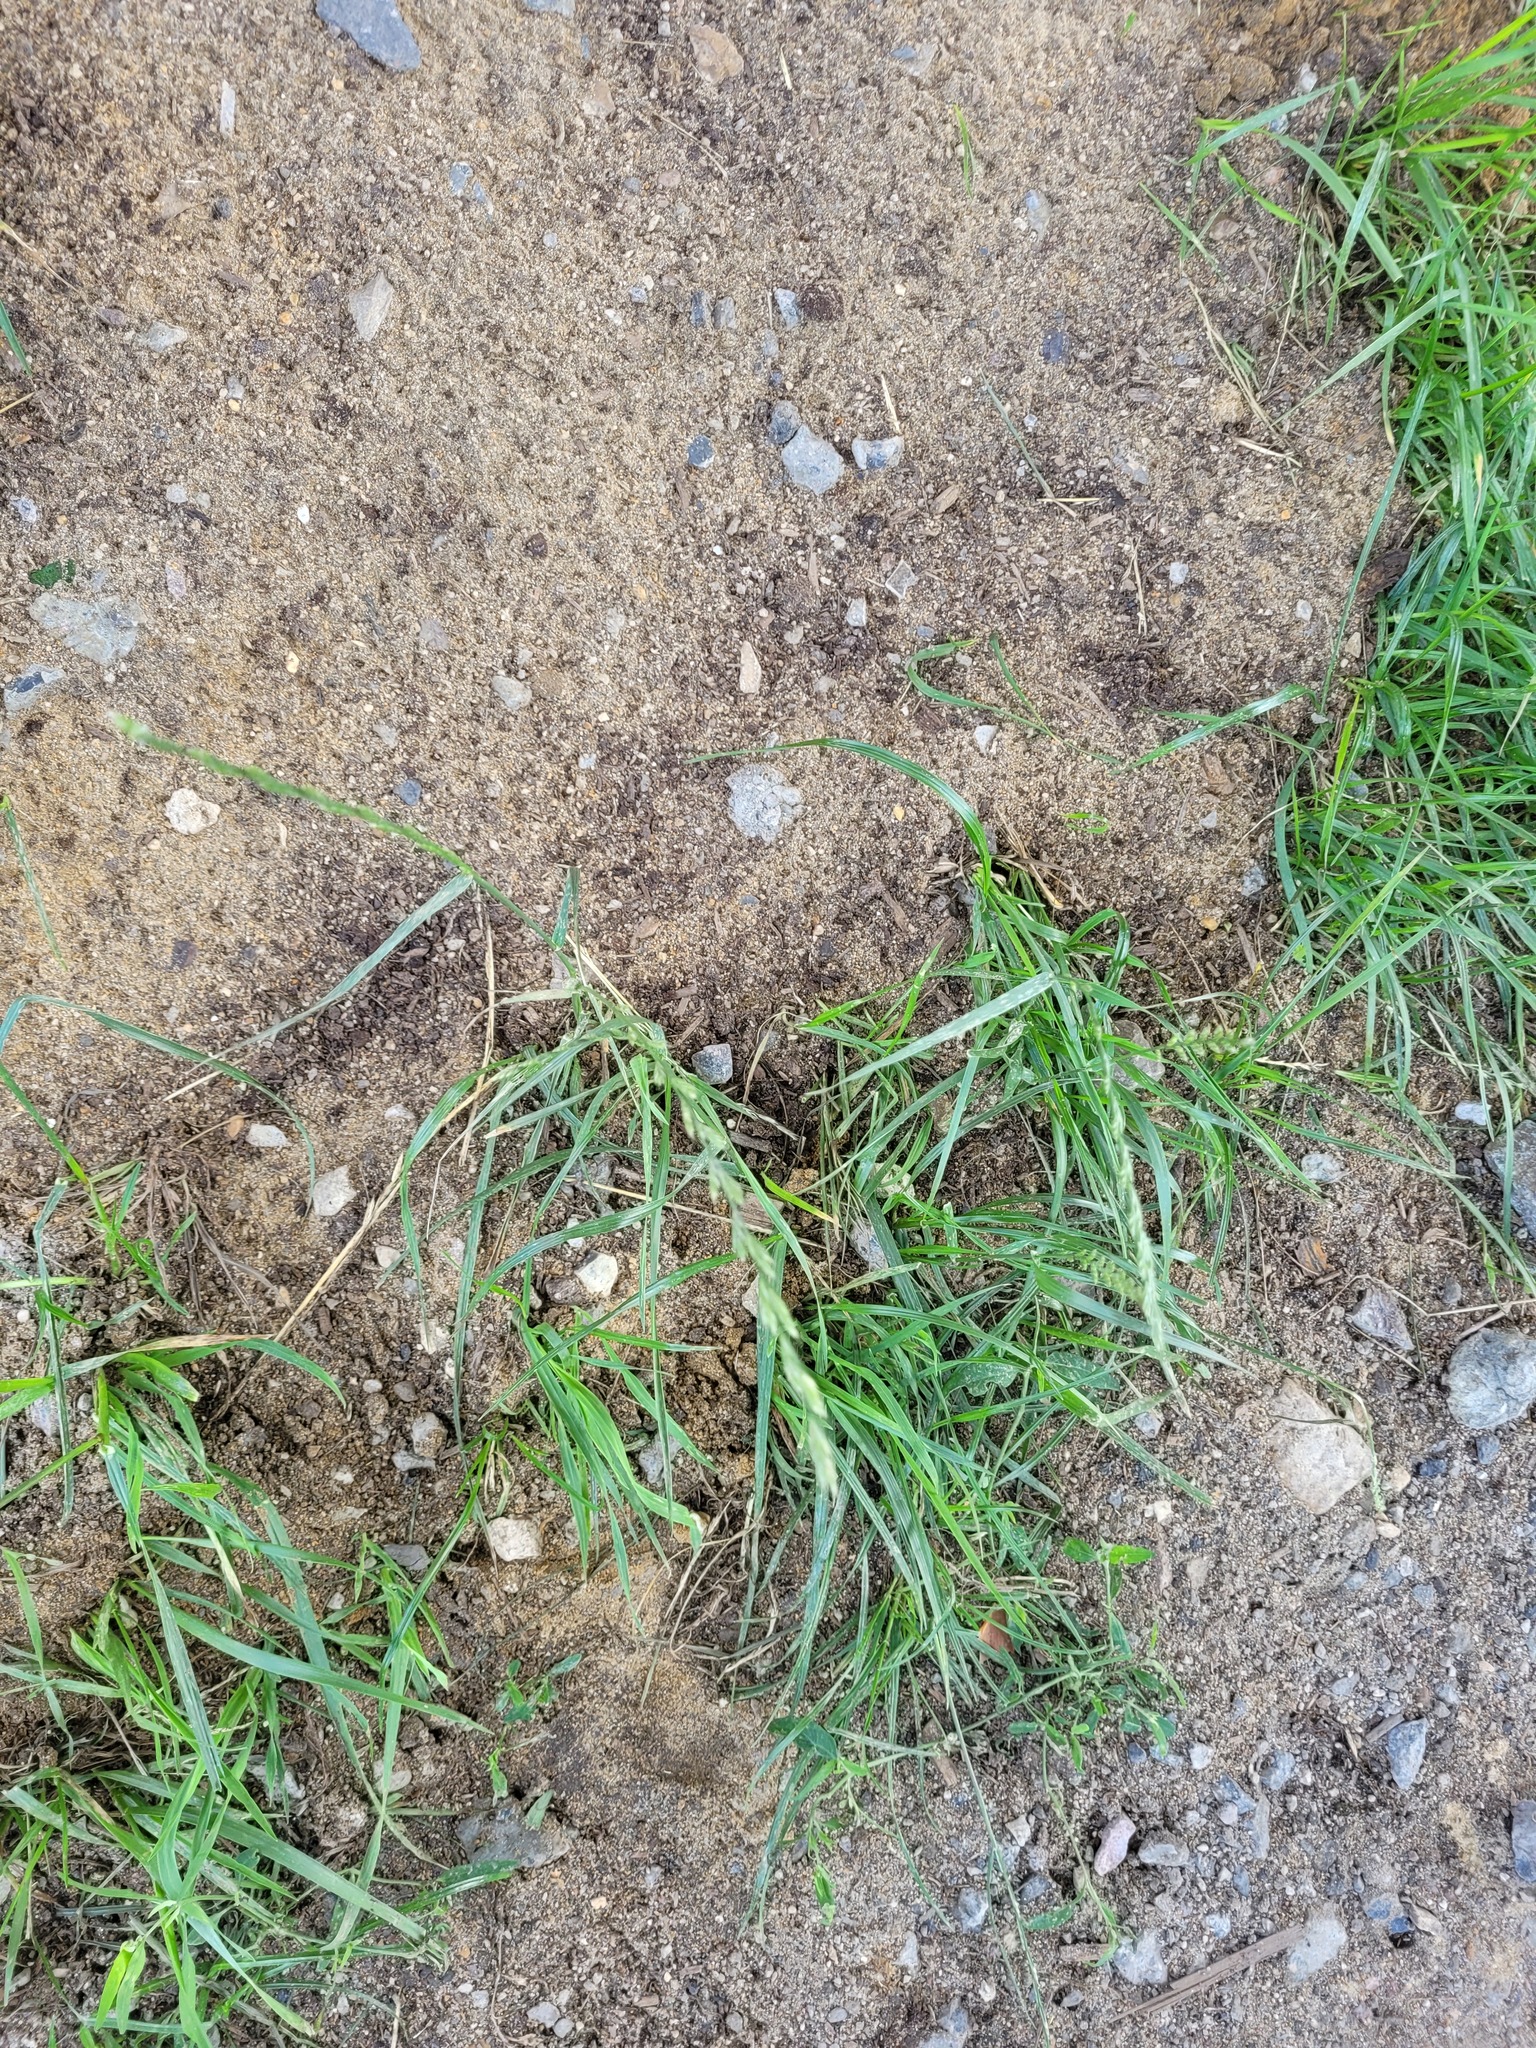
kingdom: Plantae
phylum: Tracheophyta
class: Liliopsida
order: Poales
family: Poaceae
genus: Lolium
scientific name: Lolium perenne
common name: Perennial ryegrass
